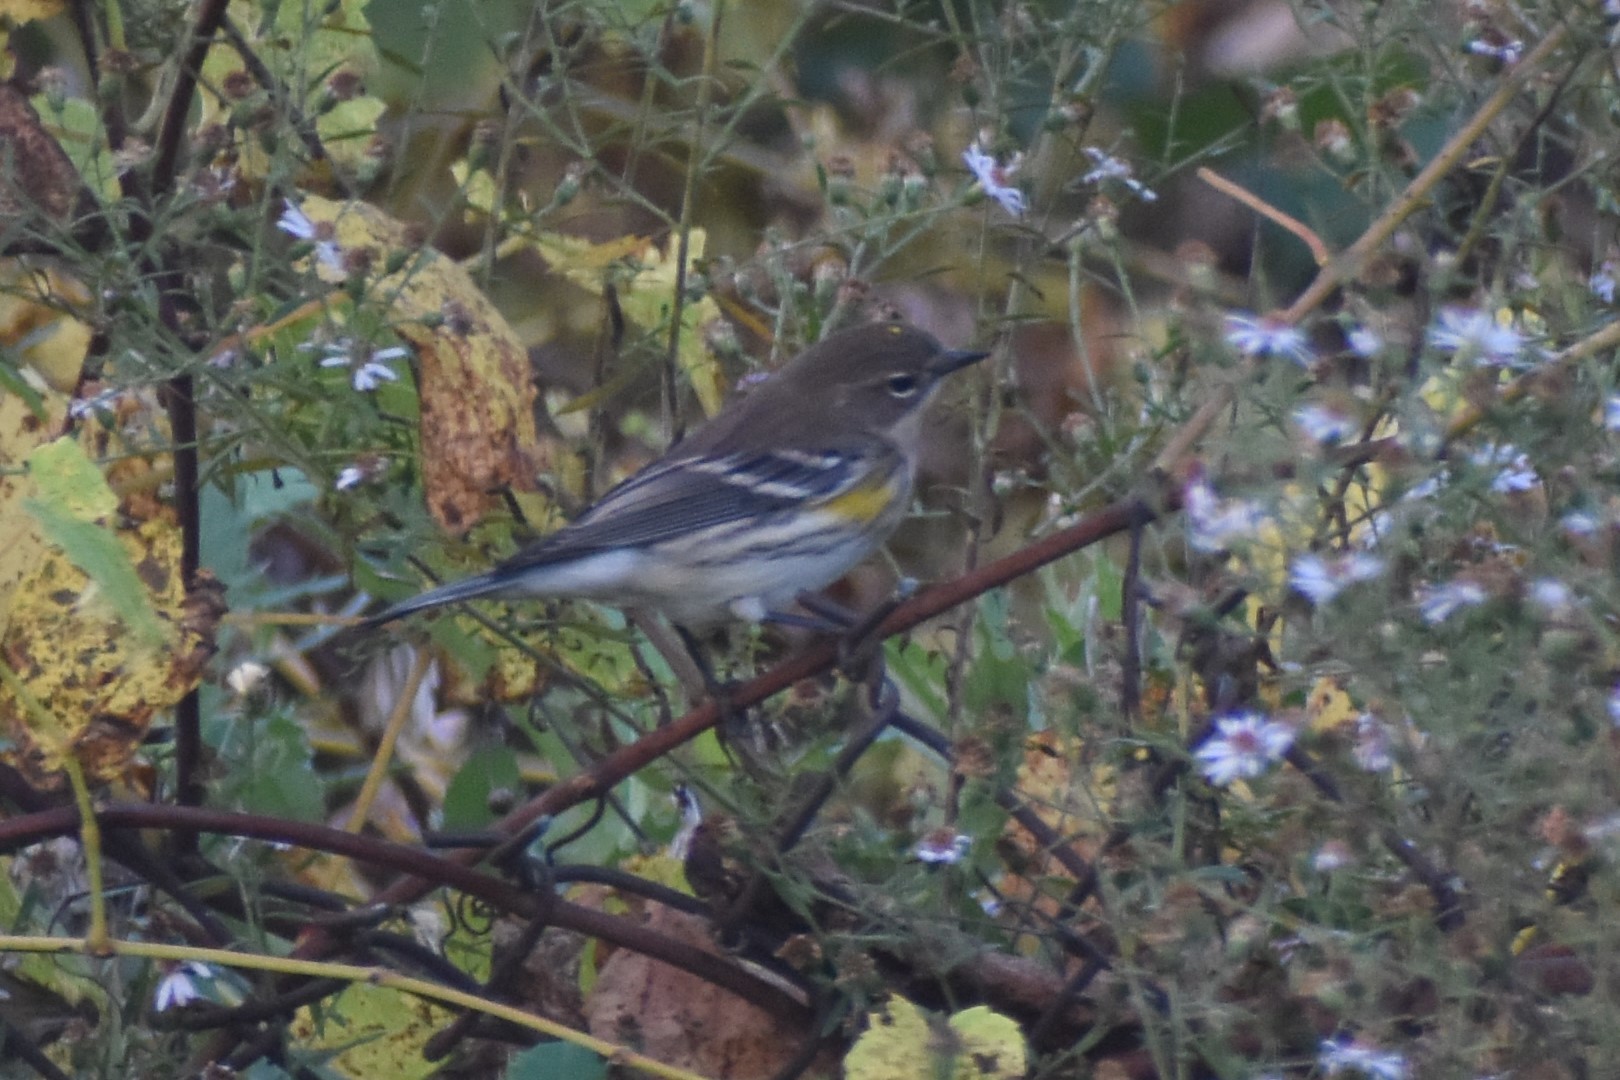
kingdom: Animalia
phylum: Chordata
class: Aves
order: Passeriformes
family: Parulidae
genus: Setophaga
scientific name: Setophaga coronata
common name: Myrtle warbler
